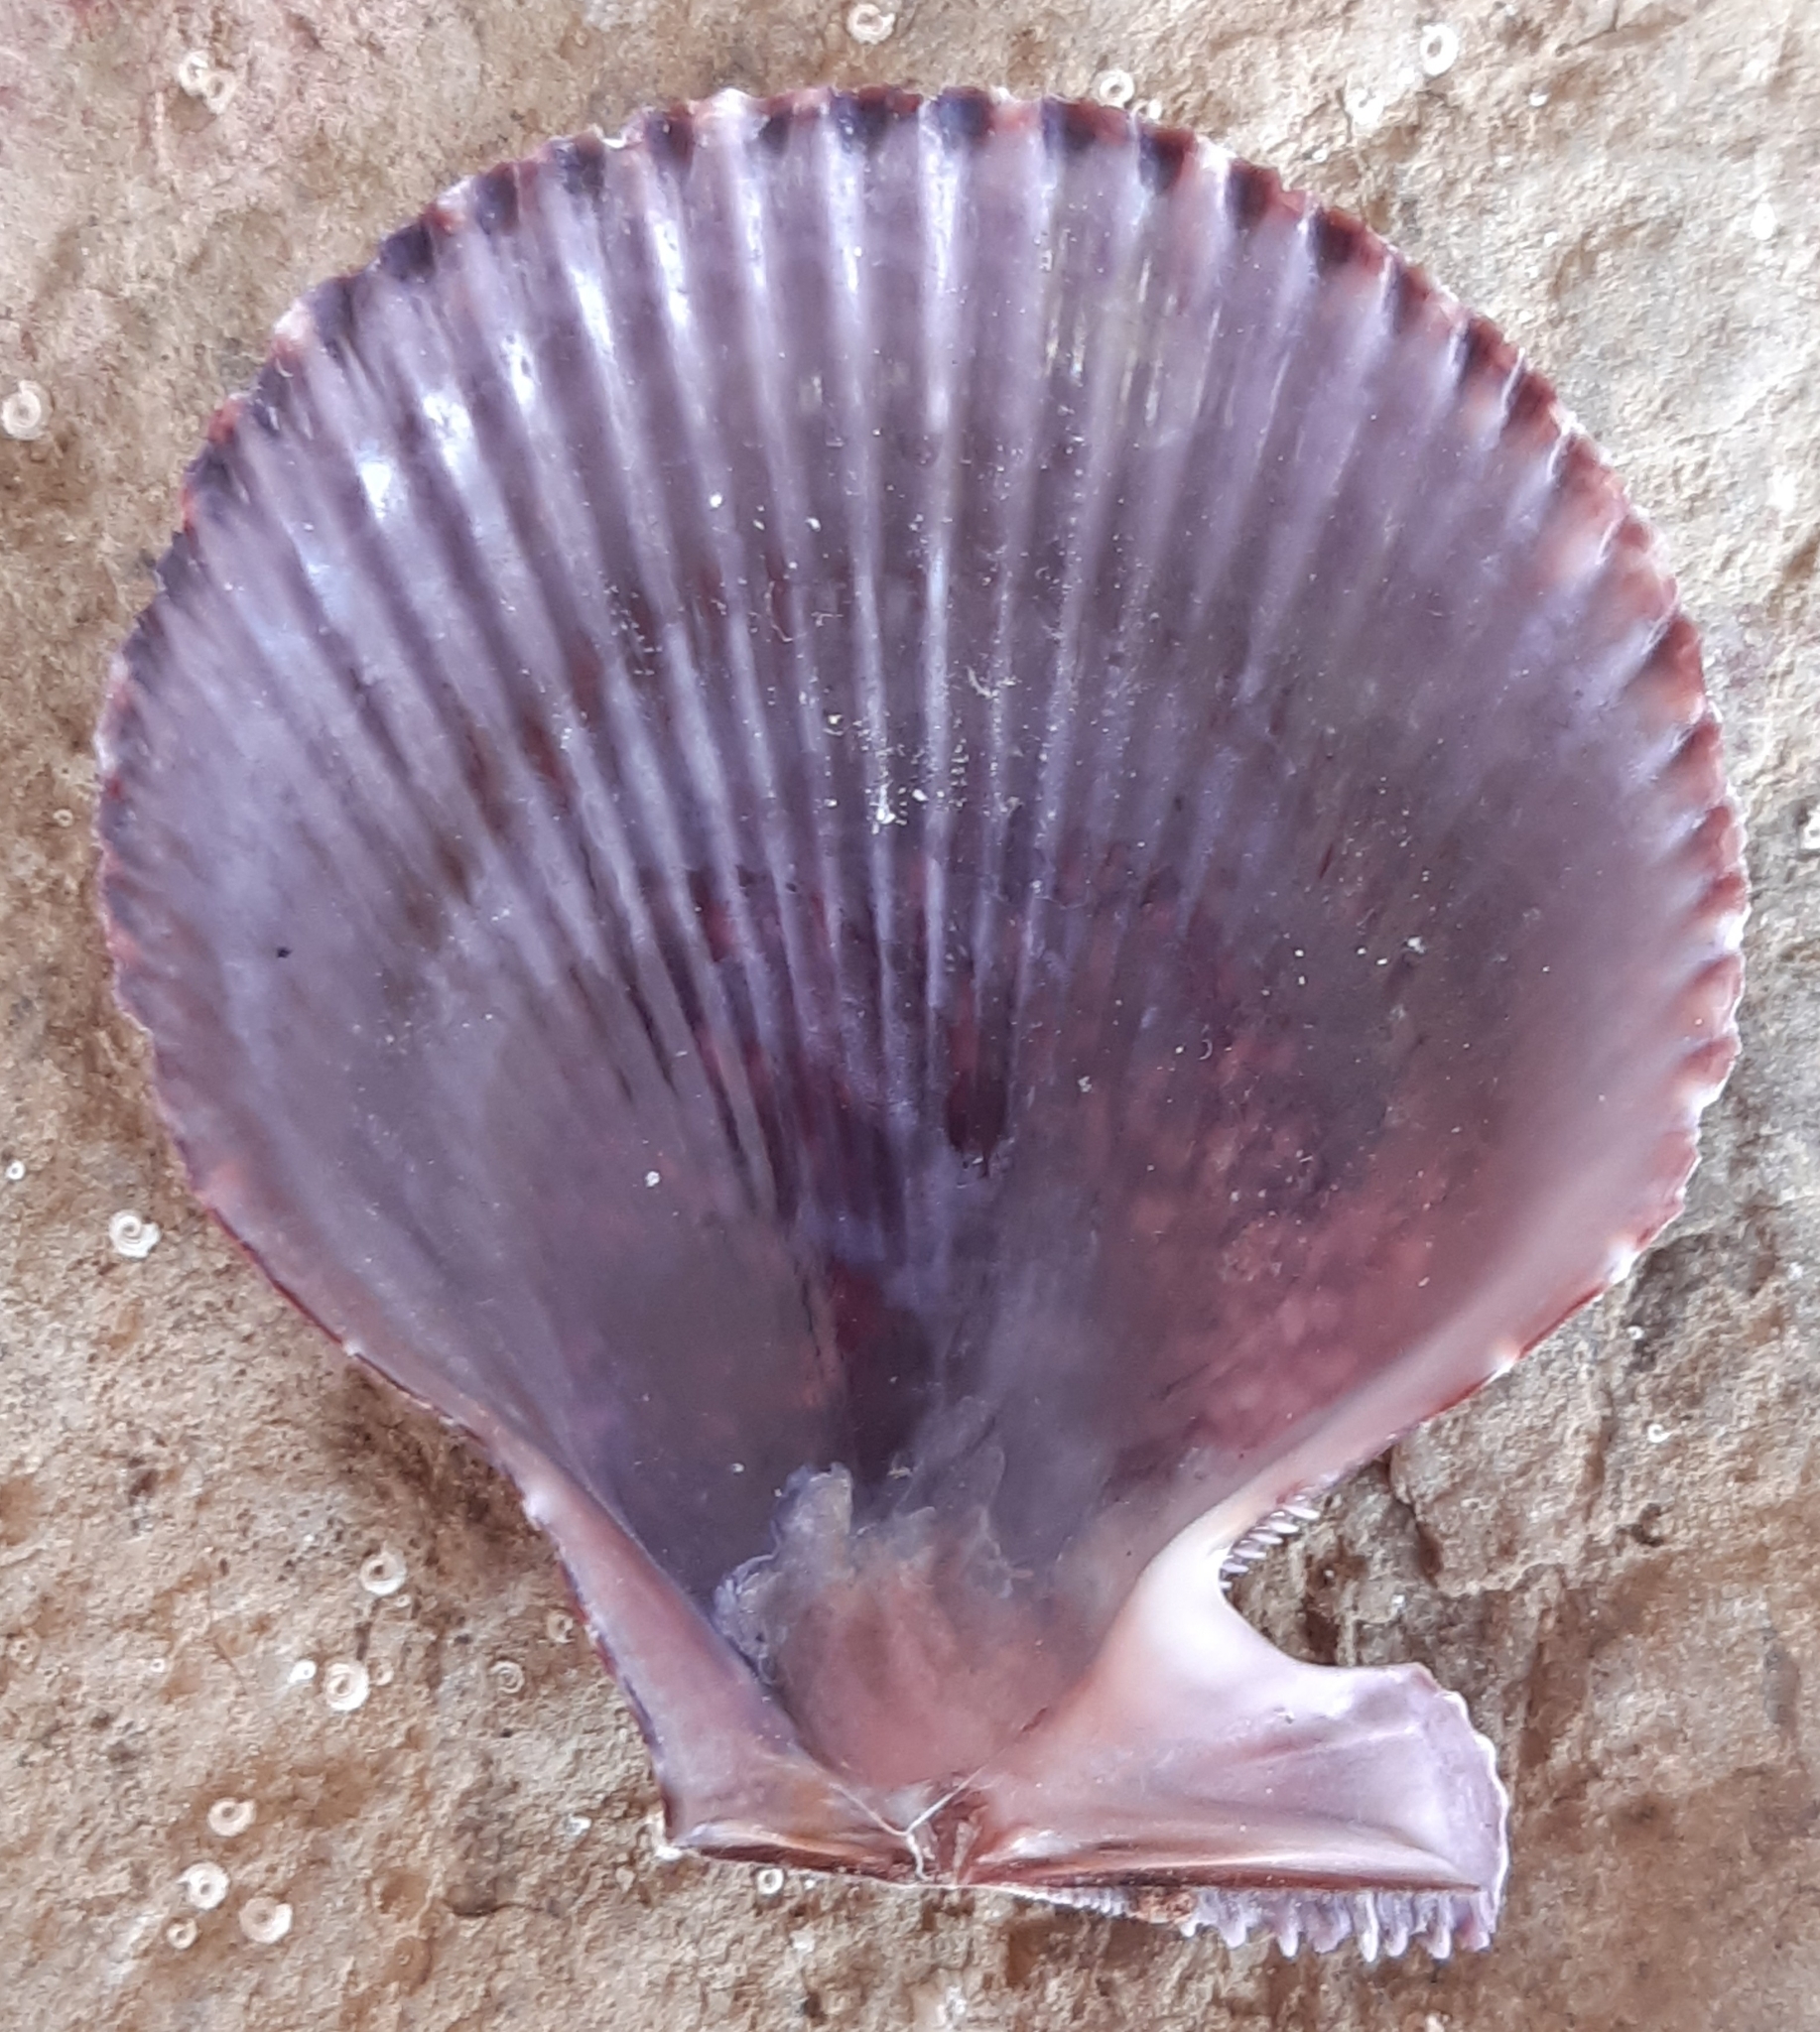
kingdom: Animalia
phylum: Mollusca
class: Bivalvia
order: Pectinida
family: Pectinidae
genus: Mimachlamys
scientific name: Mimachlamys varia
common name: Variegated scallop
